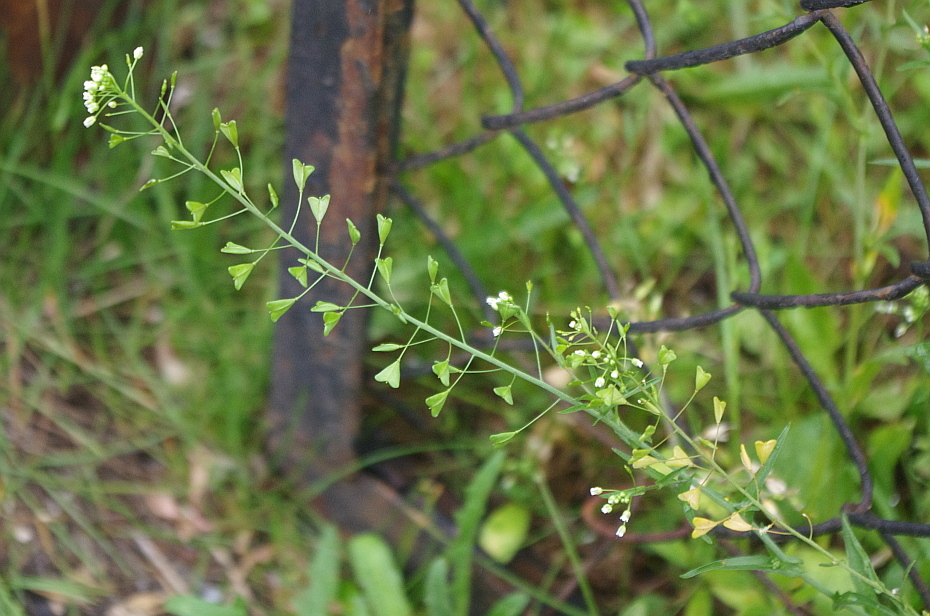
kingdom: Plantae
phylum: Tracheophyta
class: Magnoliopsida
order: Brassicales
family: Brassicaceae
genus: Capsella
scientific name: Capsella bursa-pastoris
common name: Shepherd's purse
